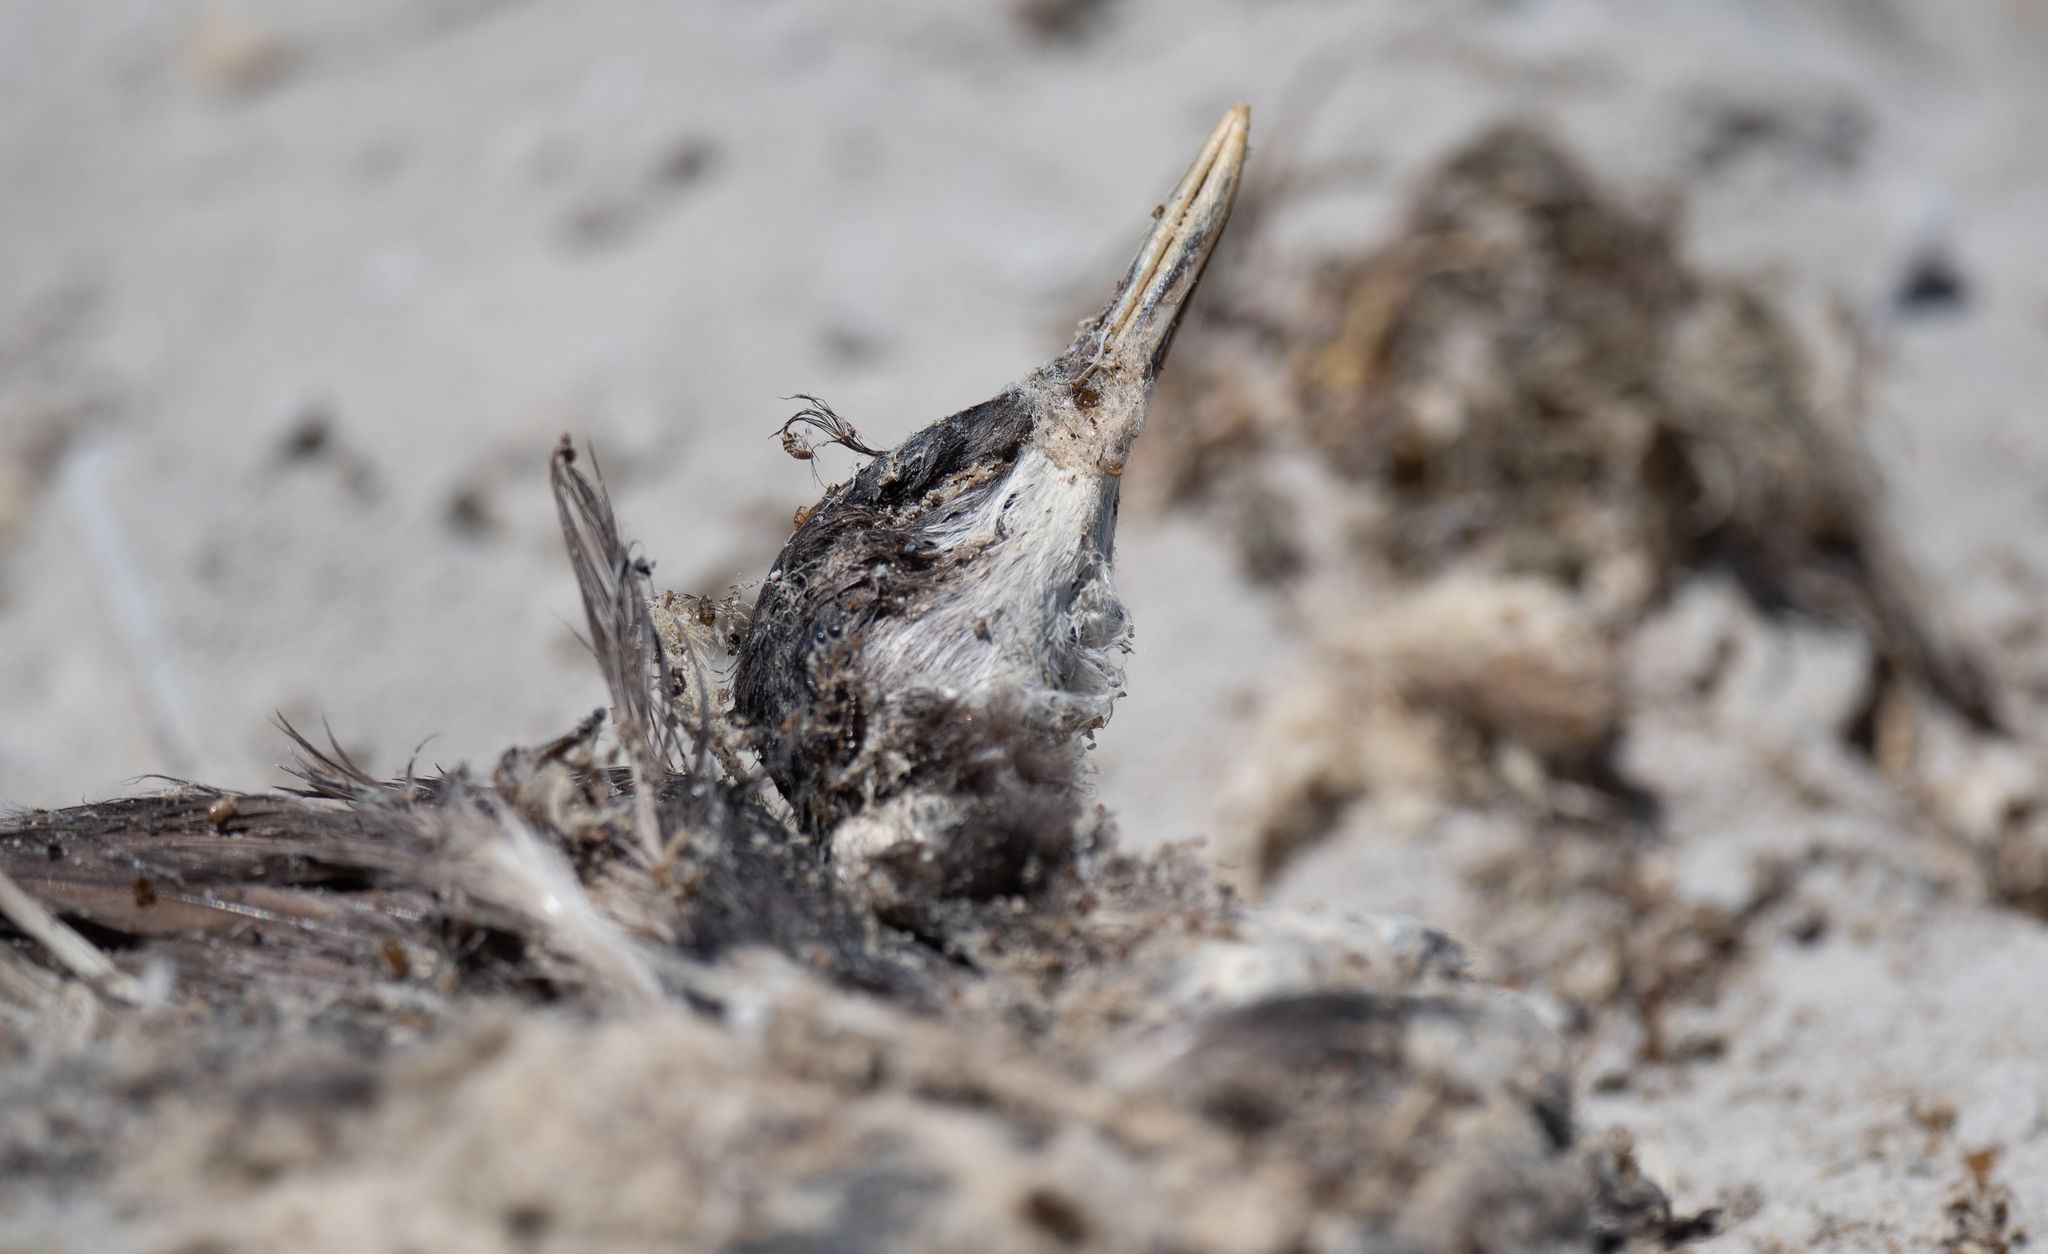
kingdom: Animalia
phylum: Chordata
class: Aves
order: Podicipediformes
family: Podicipedidae
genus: Aechmophorus
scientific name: Aechmophorus occidentalis
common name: Western grebe
